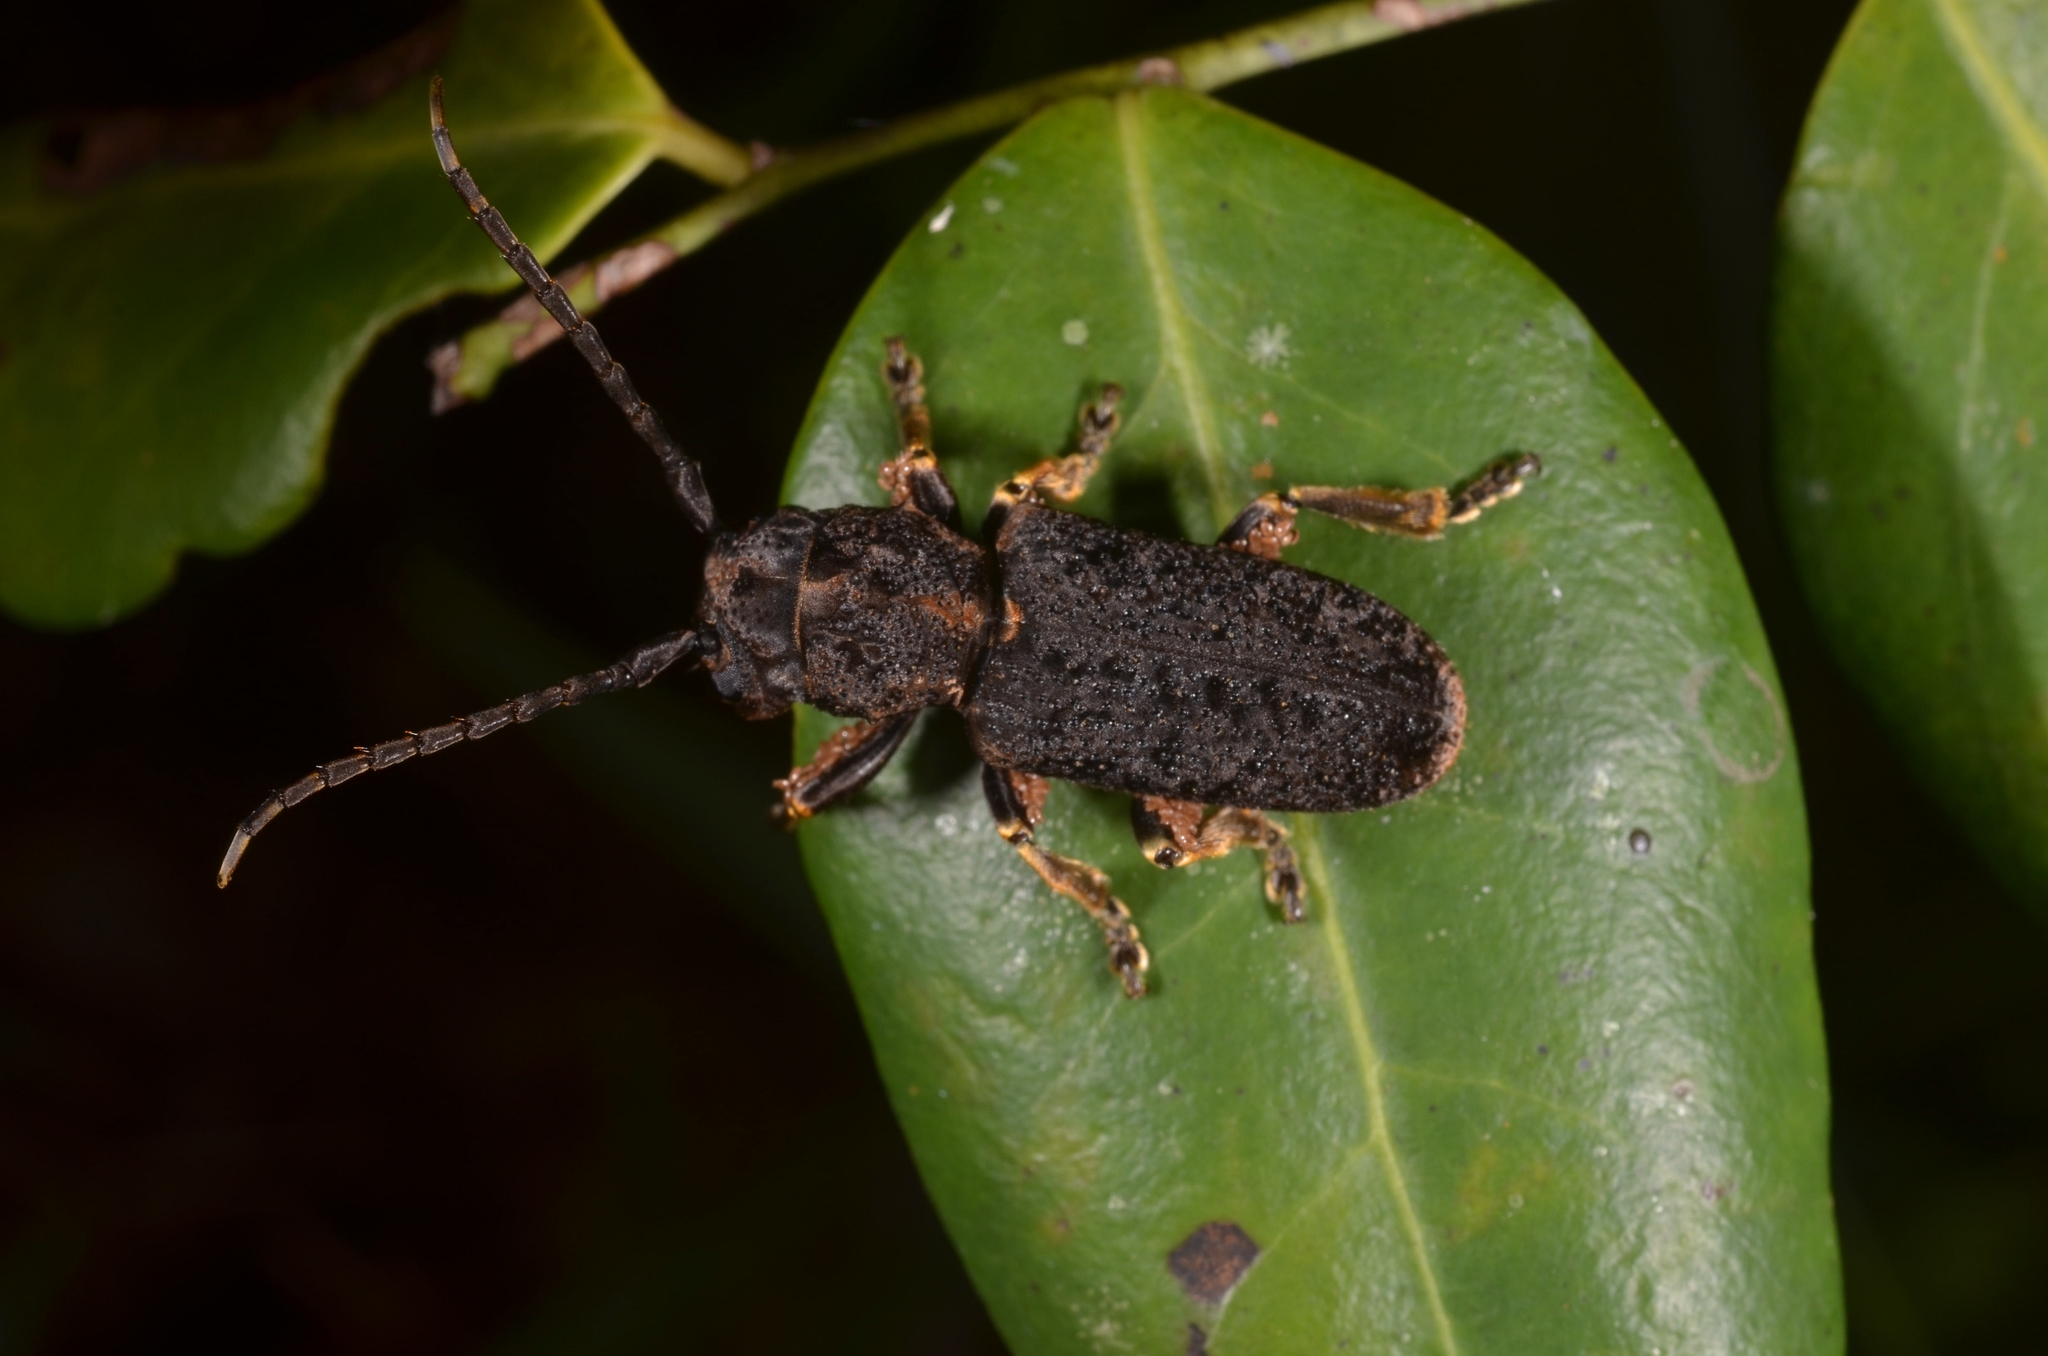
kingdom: Animalia
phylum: Arthropoda
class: Insecta
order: Coleoptera
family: Cerambycidae
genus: Falsimalmus
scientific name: Falsimalmus niger
